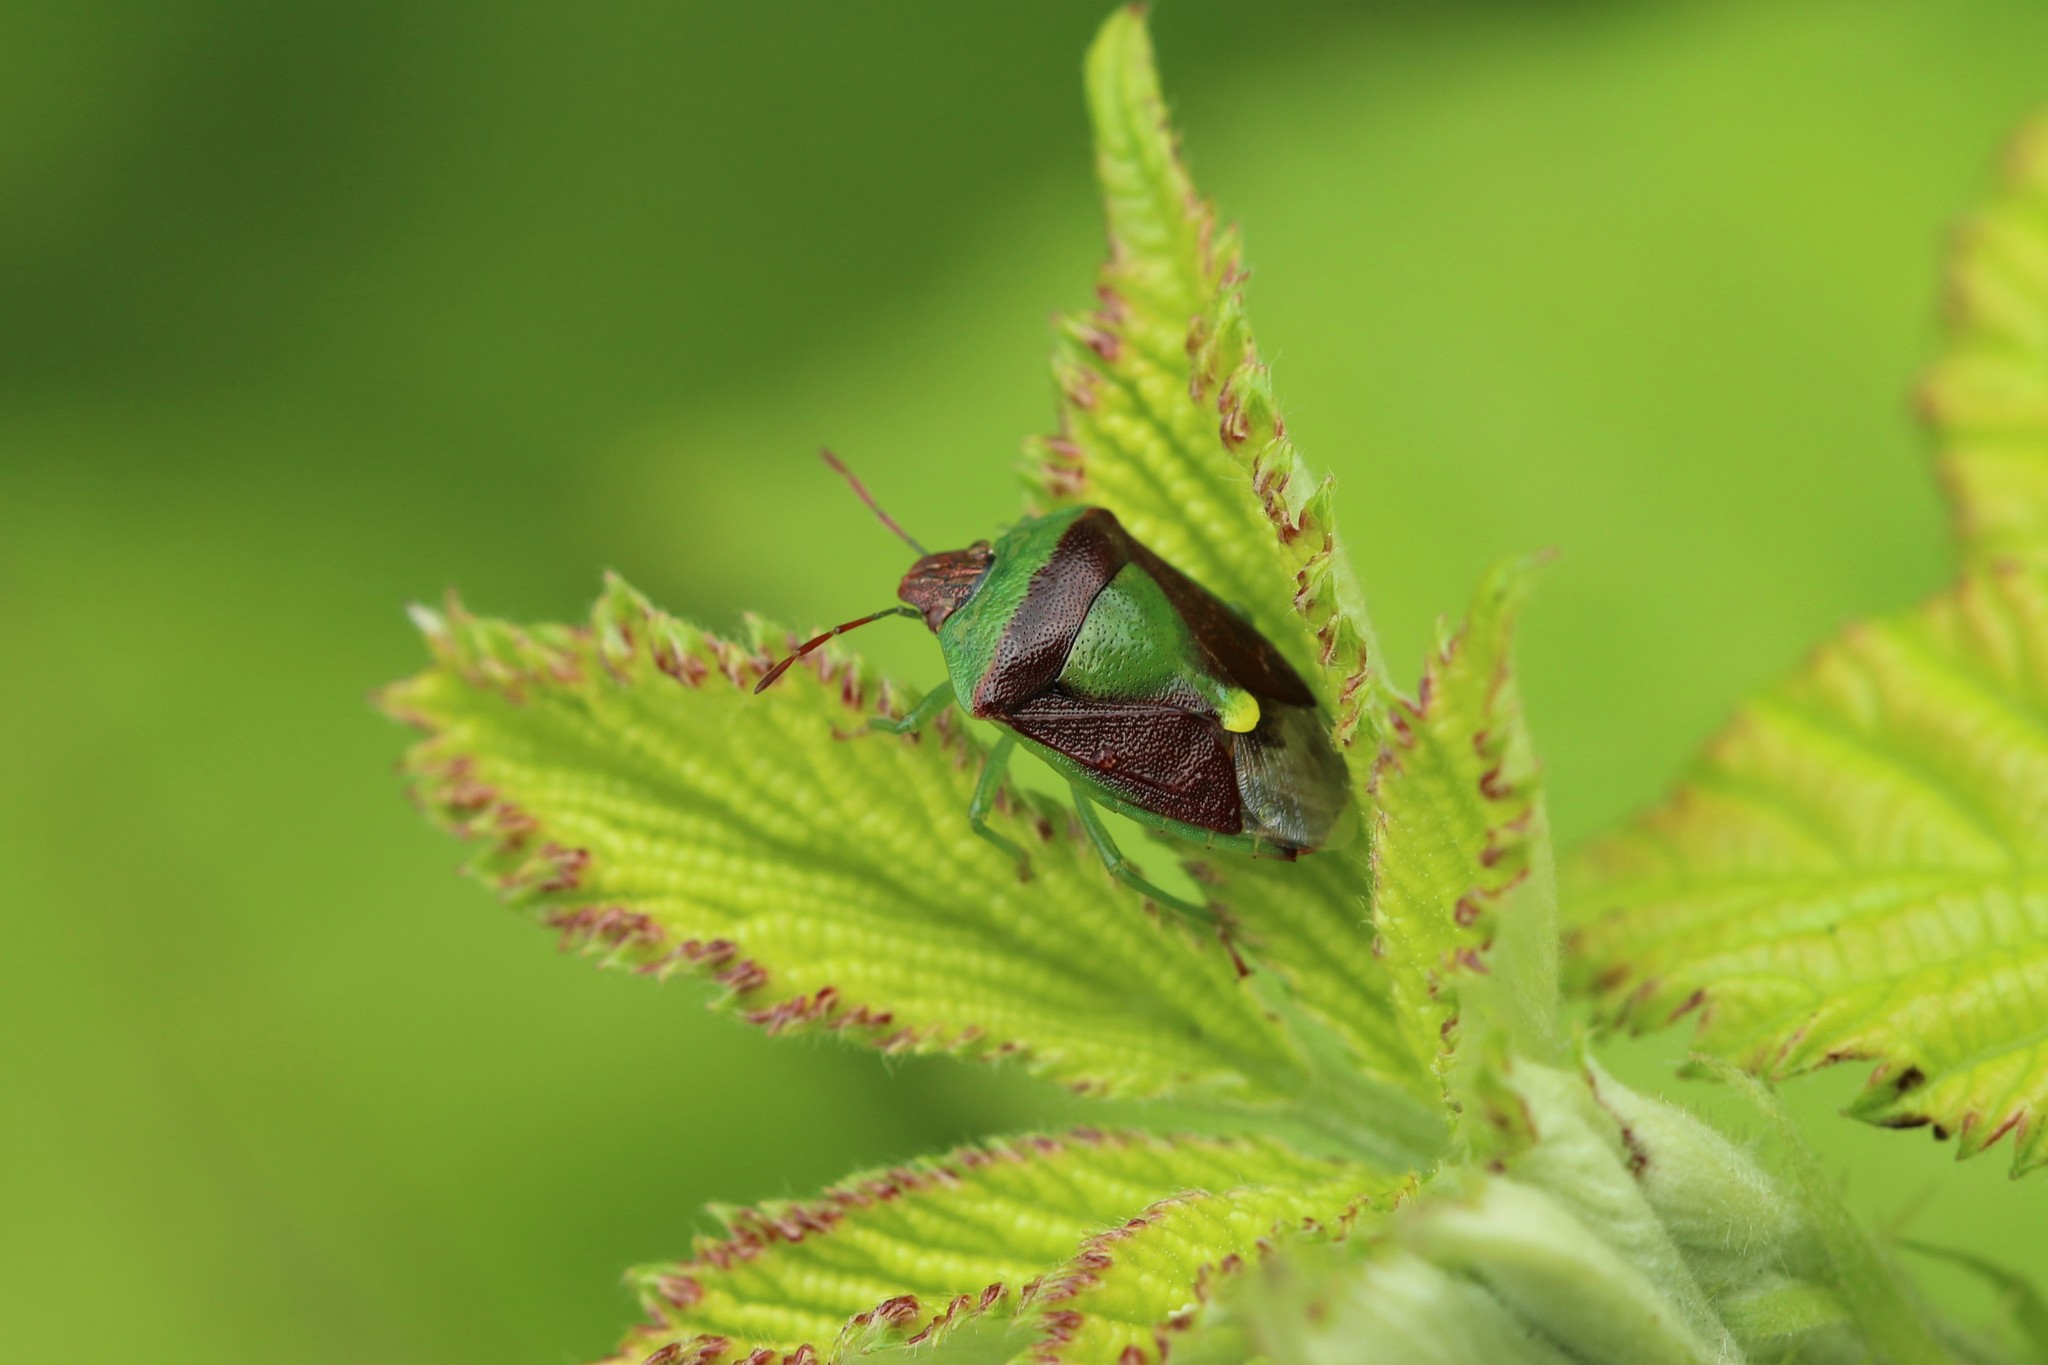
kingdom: Animalia
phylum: Arthropoda
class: Insecta
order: Hemiptera
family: Pentatomidae
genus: Banasa
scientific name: Banasa dimidiata
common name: Green burgundy stink bug
